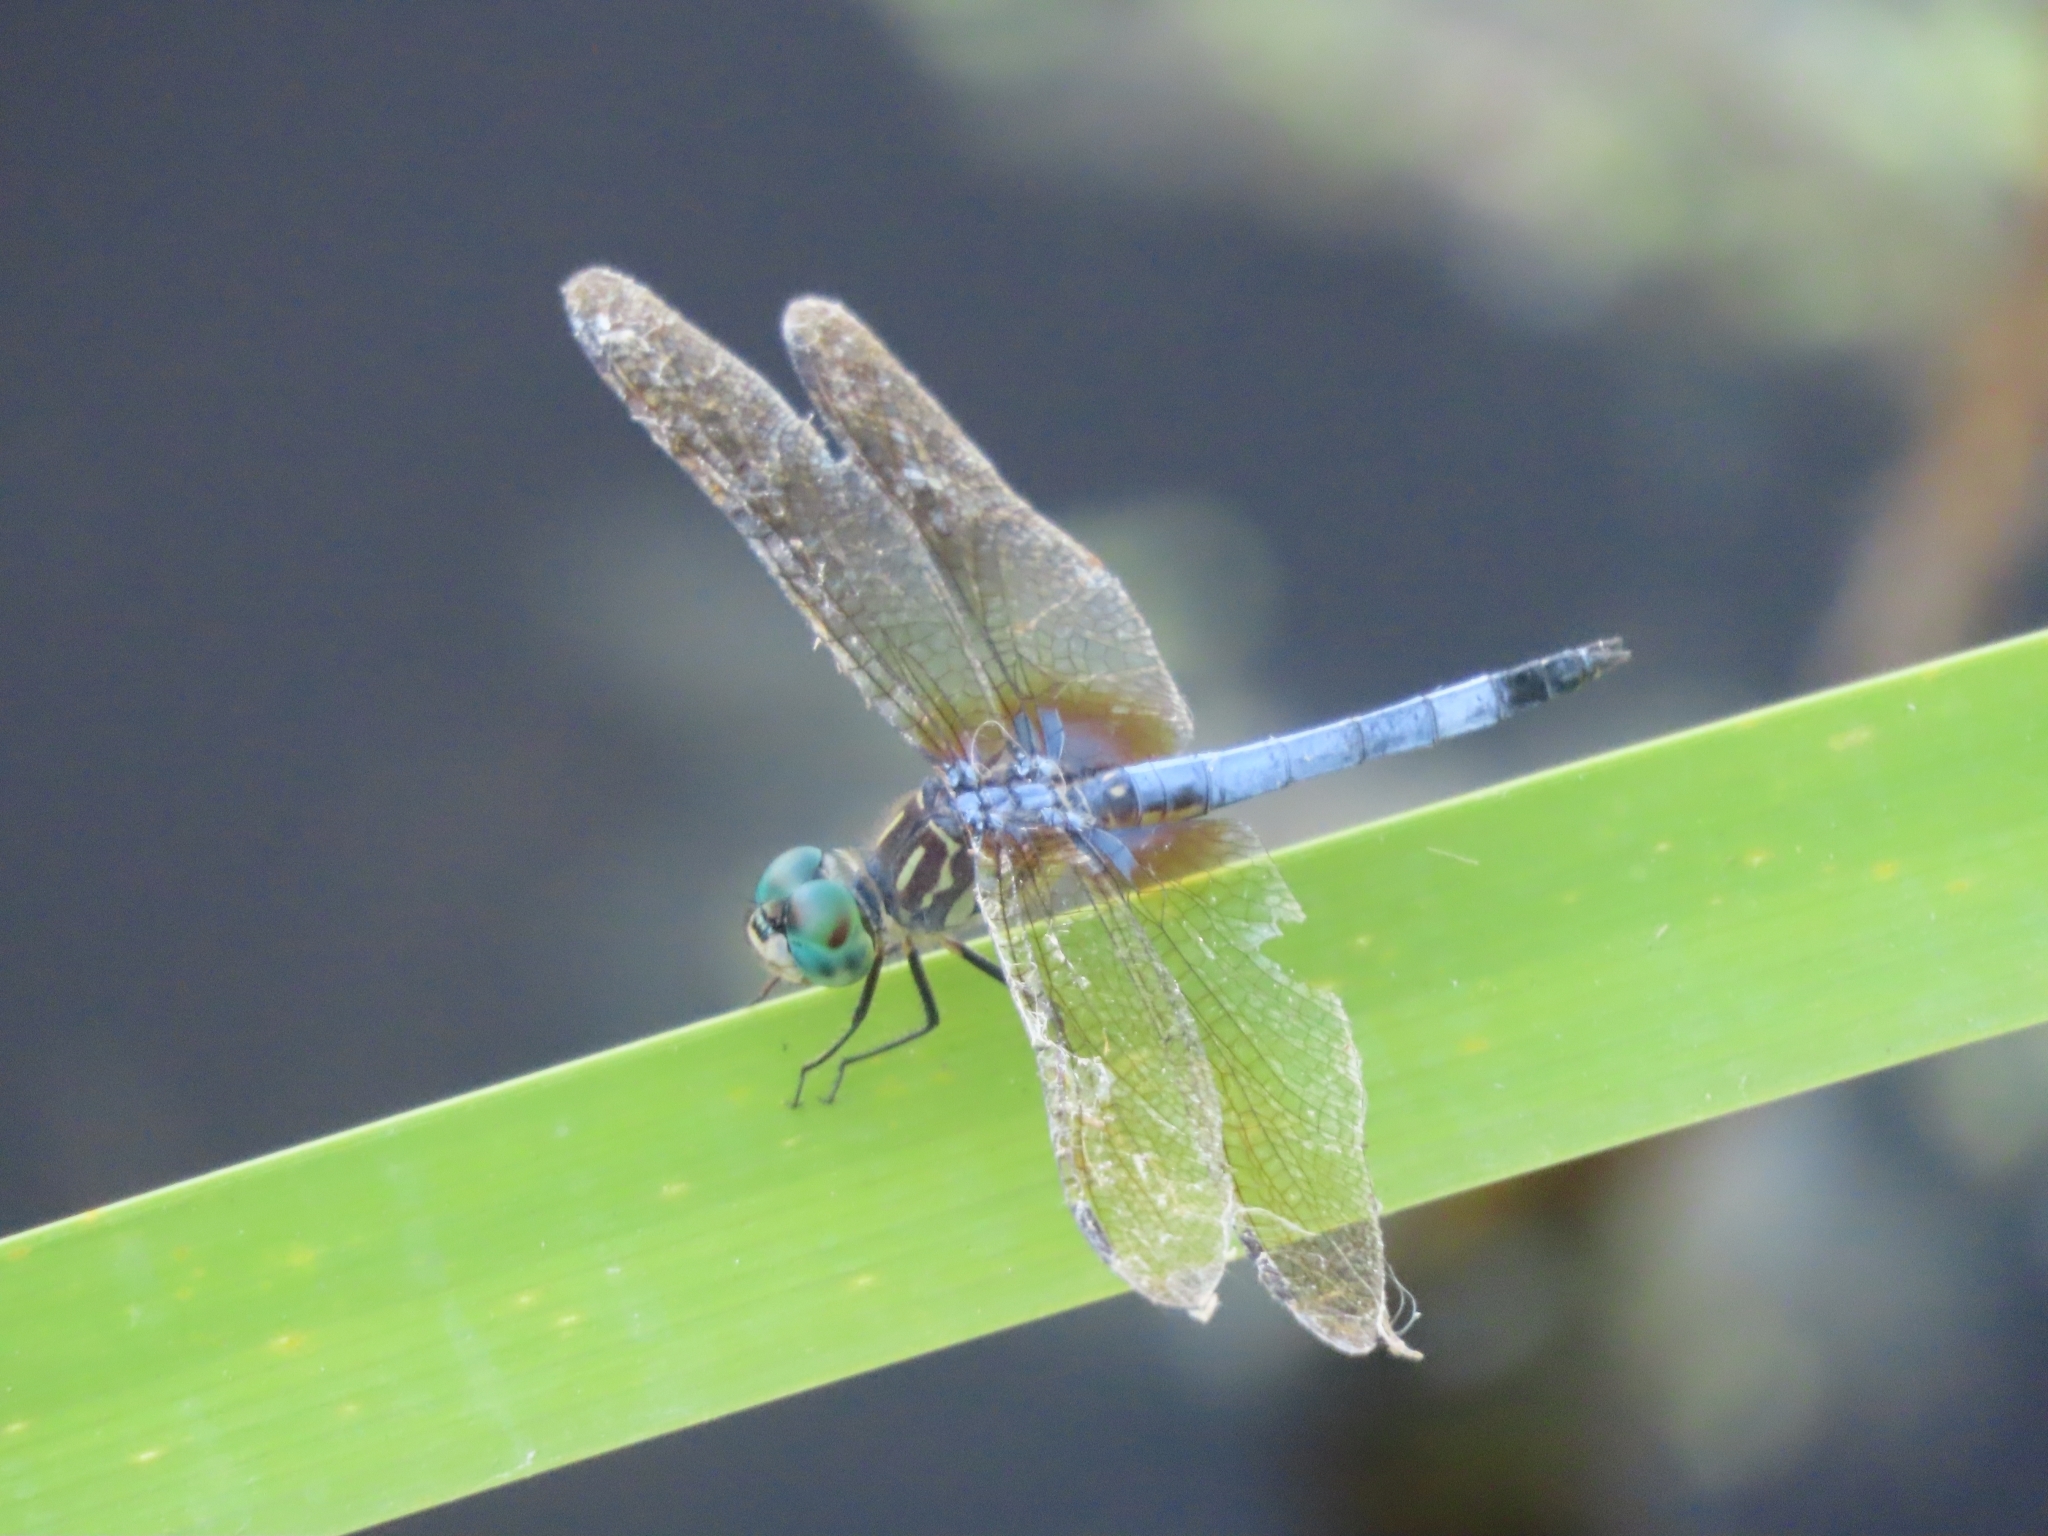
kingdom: Animalia
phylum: Arthropoda
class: Insecta
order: Odonata
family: Libellulidae
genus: Pachydiplax
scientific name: Pachydiplax longipennis
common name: Blue dasher
